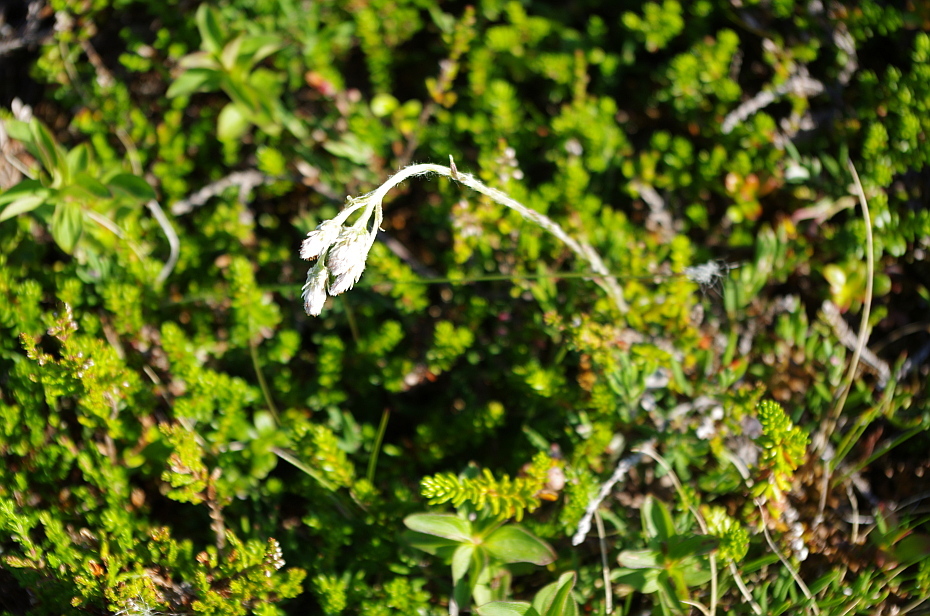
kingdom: Plantae
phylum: Tracheophyta
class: Magnoliopsida
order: Asterales
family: Asteraceae
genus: Antennaria
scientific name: Antennaria dioica
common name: Mountain everlasting
